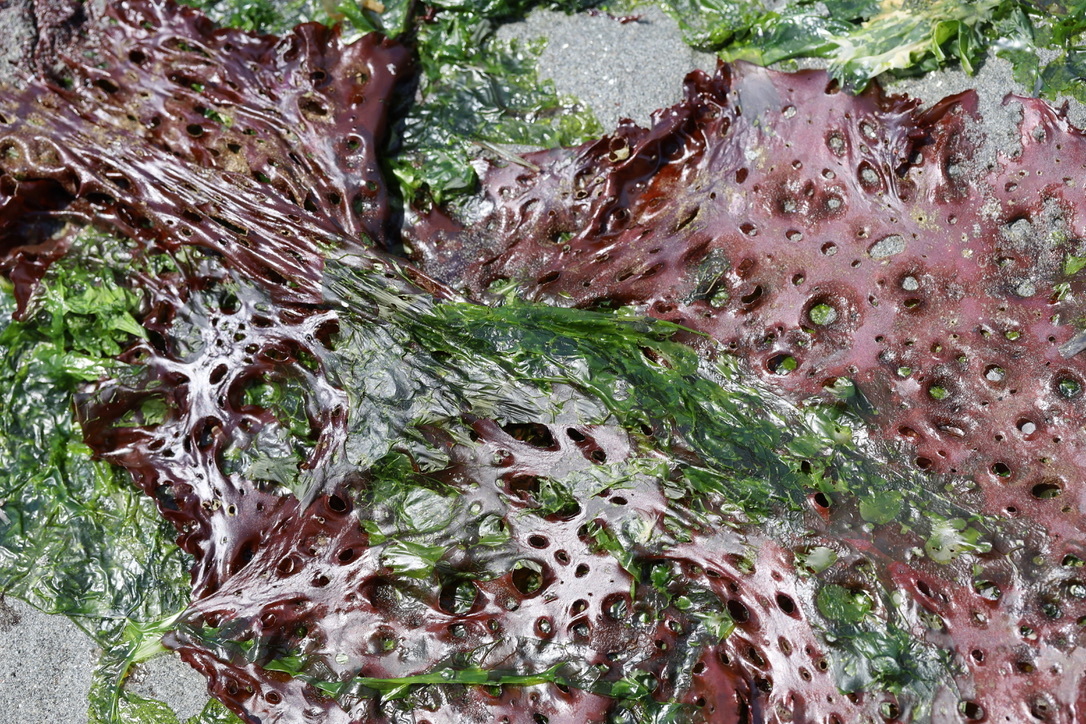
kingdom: Plantae
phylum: Rhodophyta
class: Florideophyceae
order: Rhodymeniales
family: Rhodymeniaceae
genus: Sparlingia
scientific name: Sparlingia pertusa
